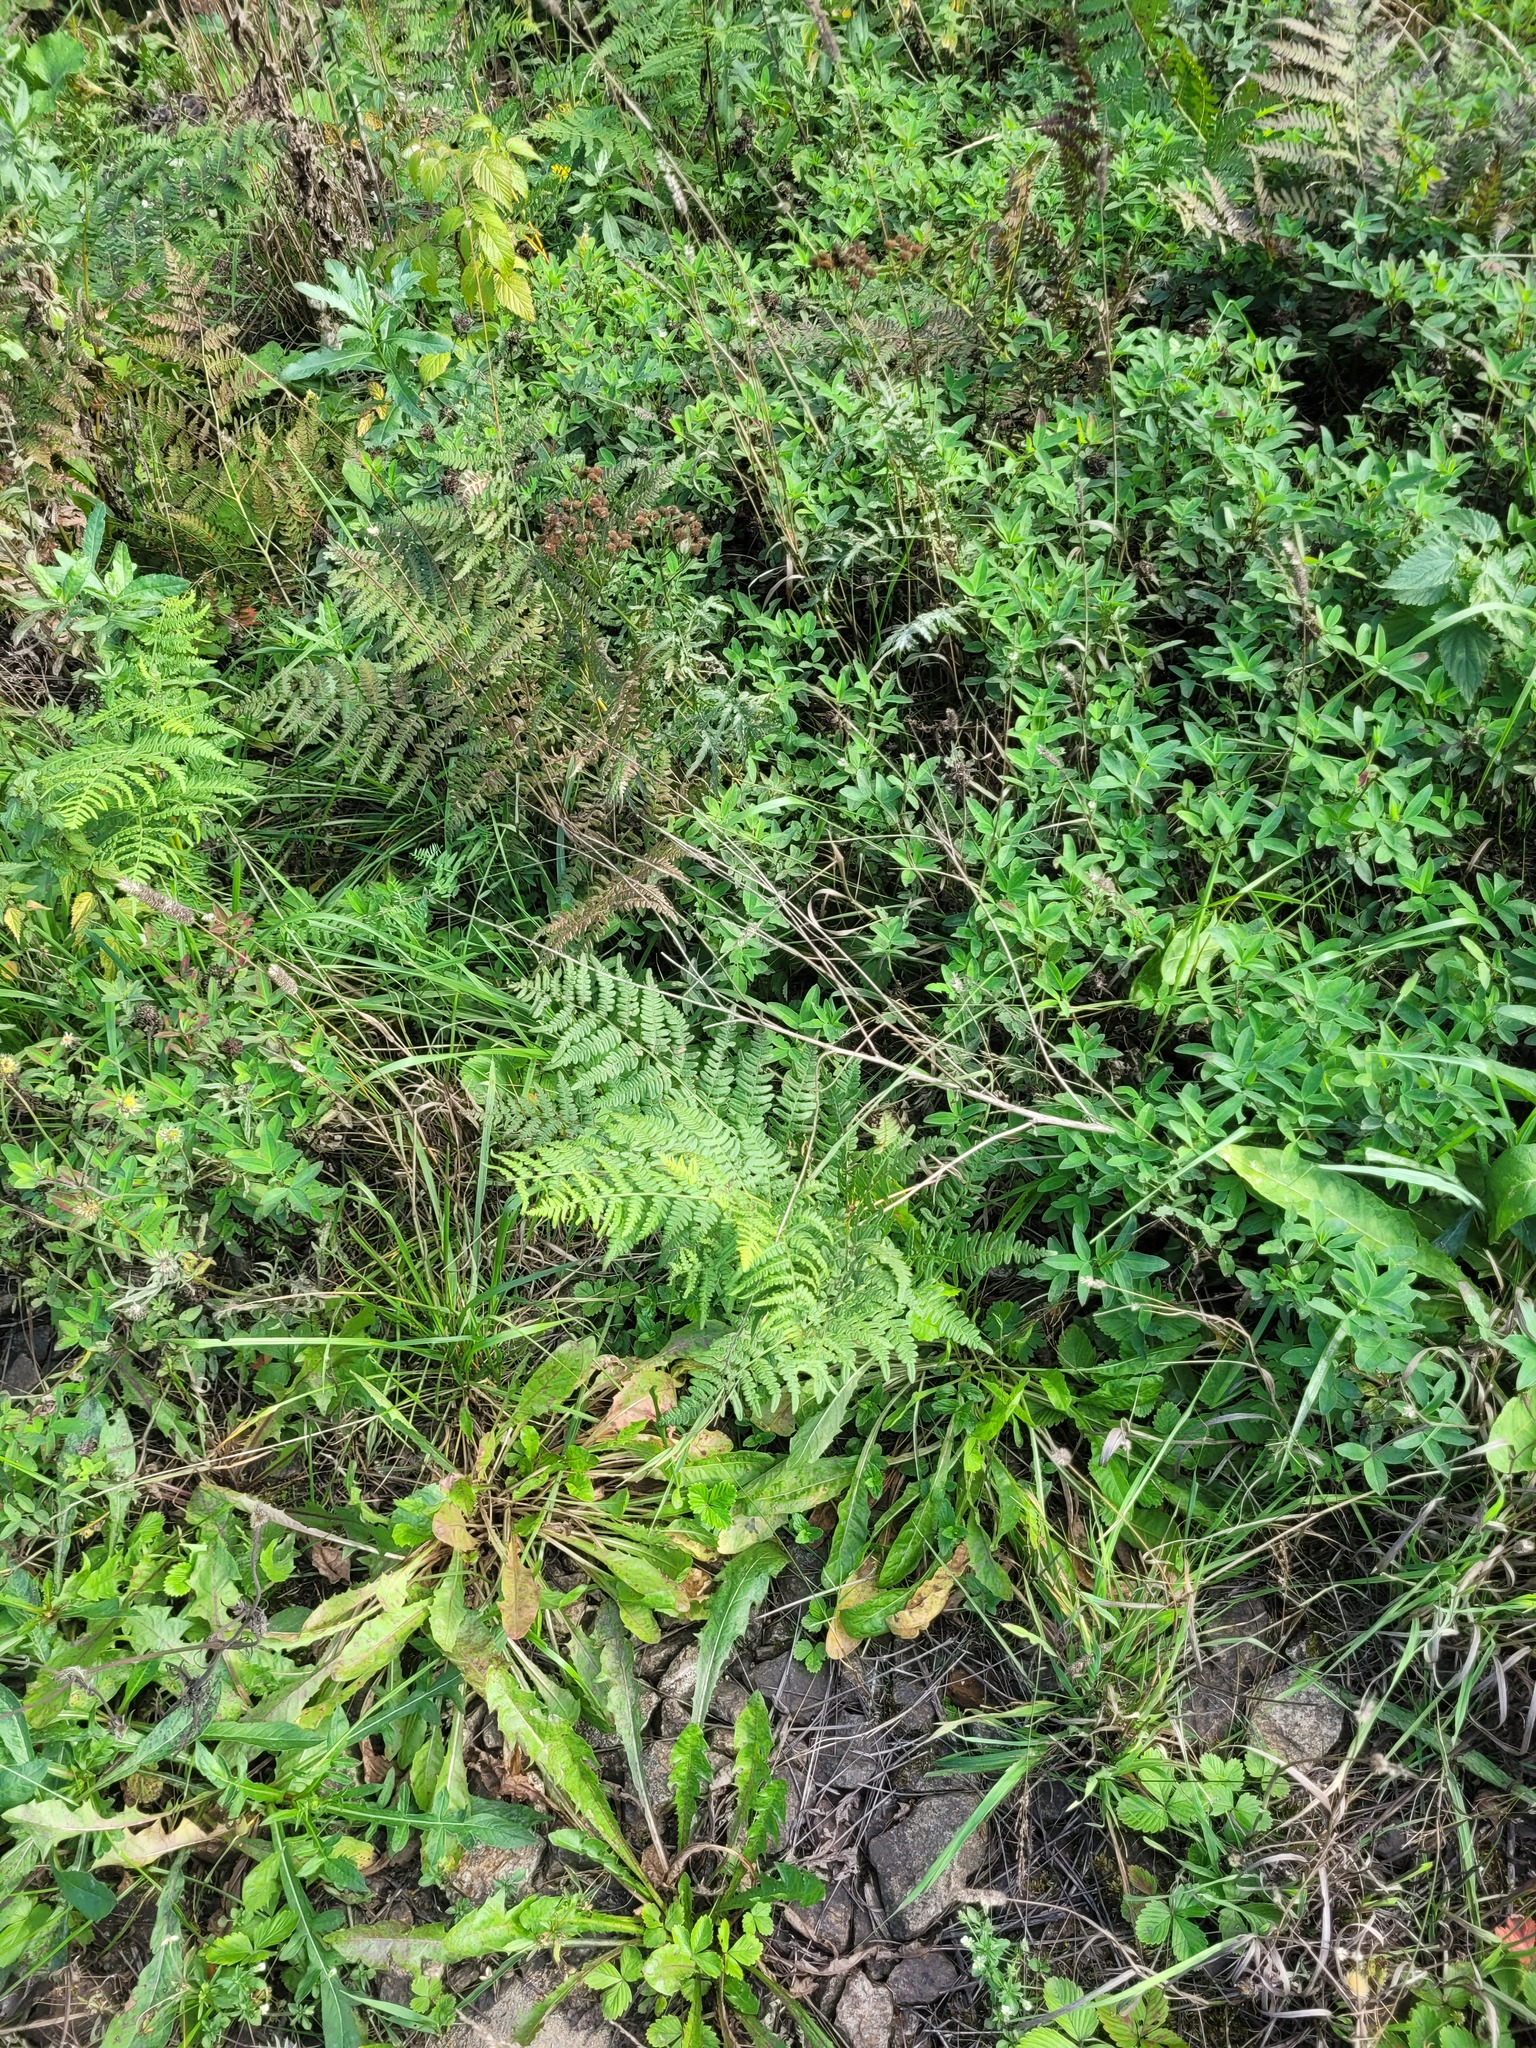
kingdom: Plantae
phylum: Tracheophyta
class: Polypodiopsida
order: Polypodiales
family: Dennstaedtiaceae
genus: Pteridium
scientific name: Pteridium aquilinum
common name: Bracken
